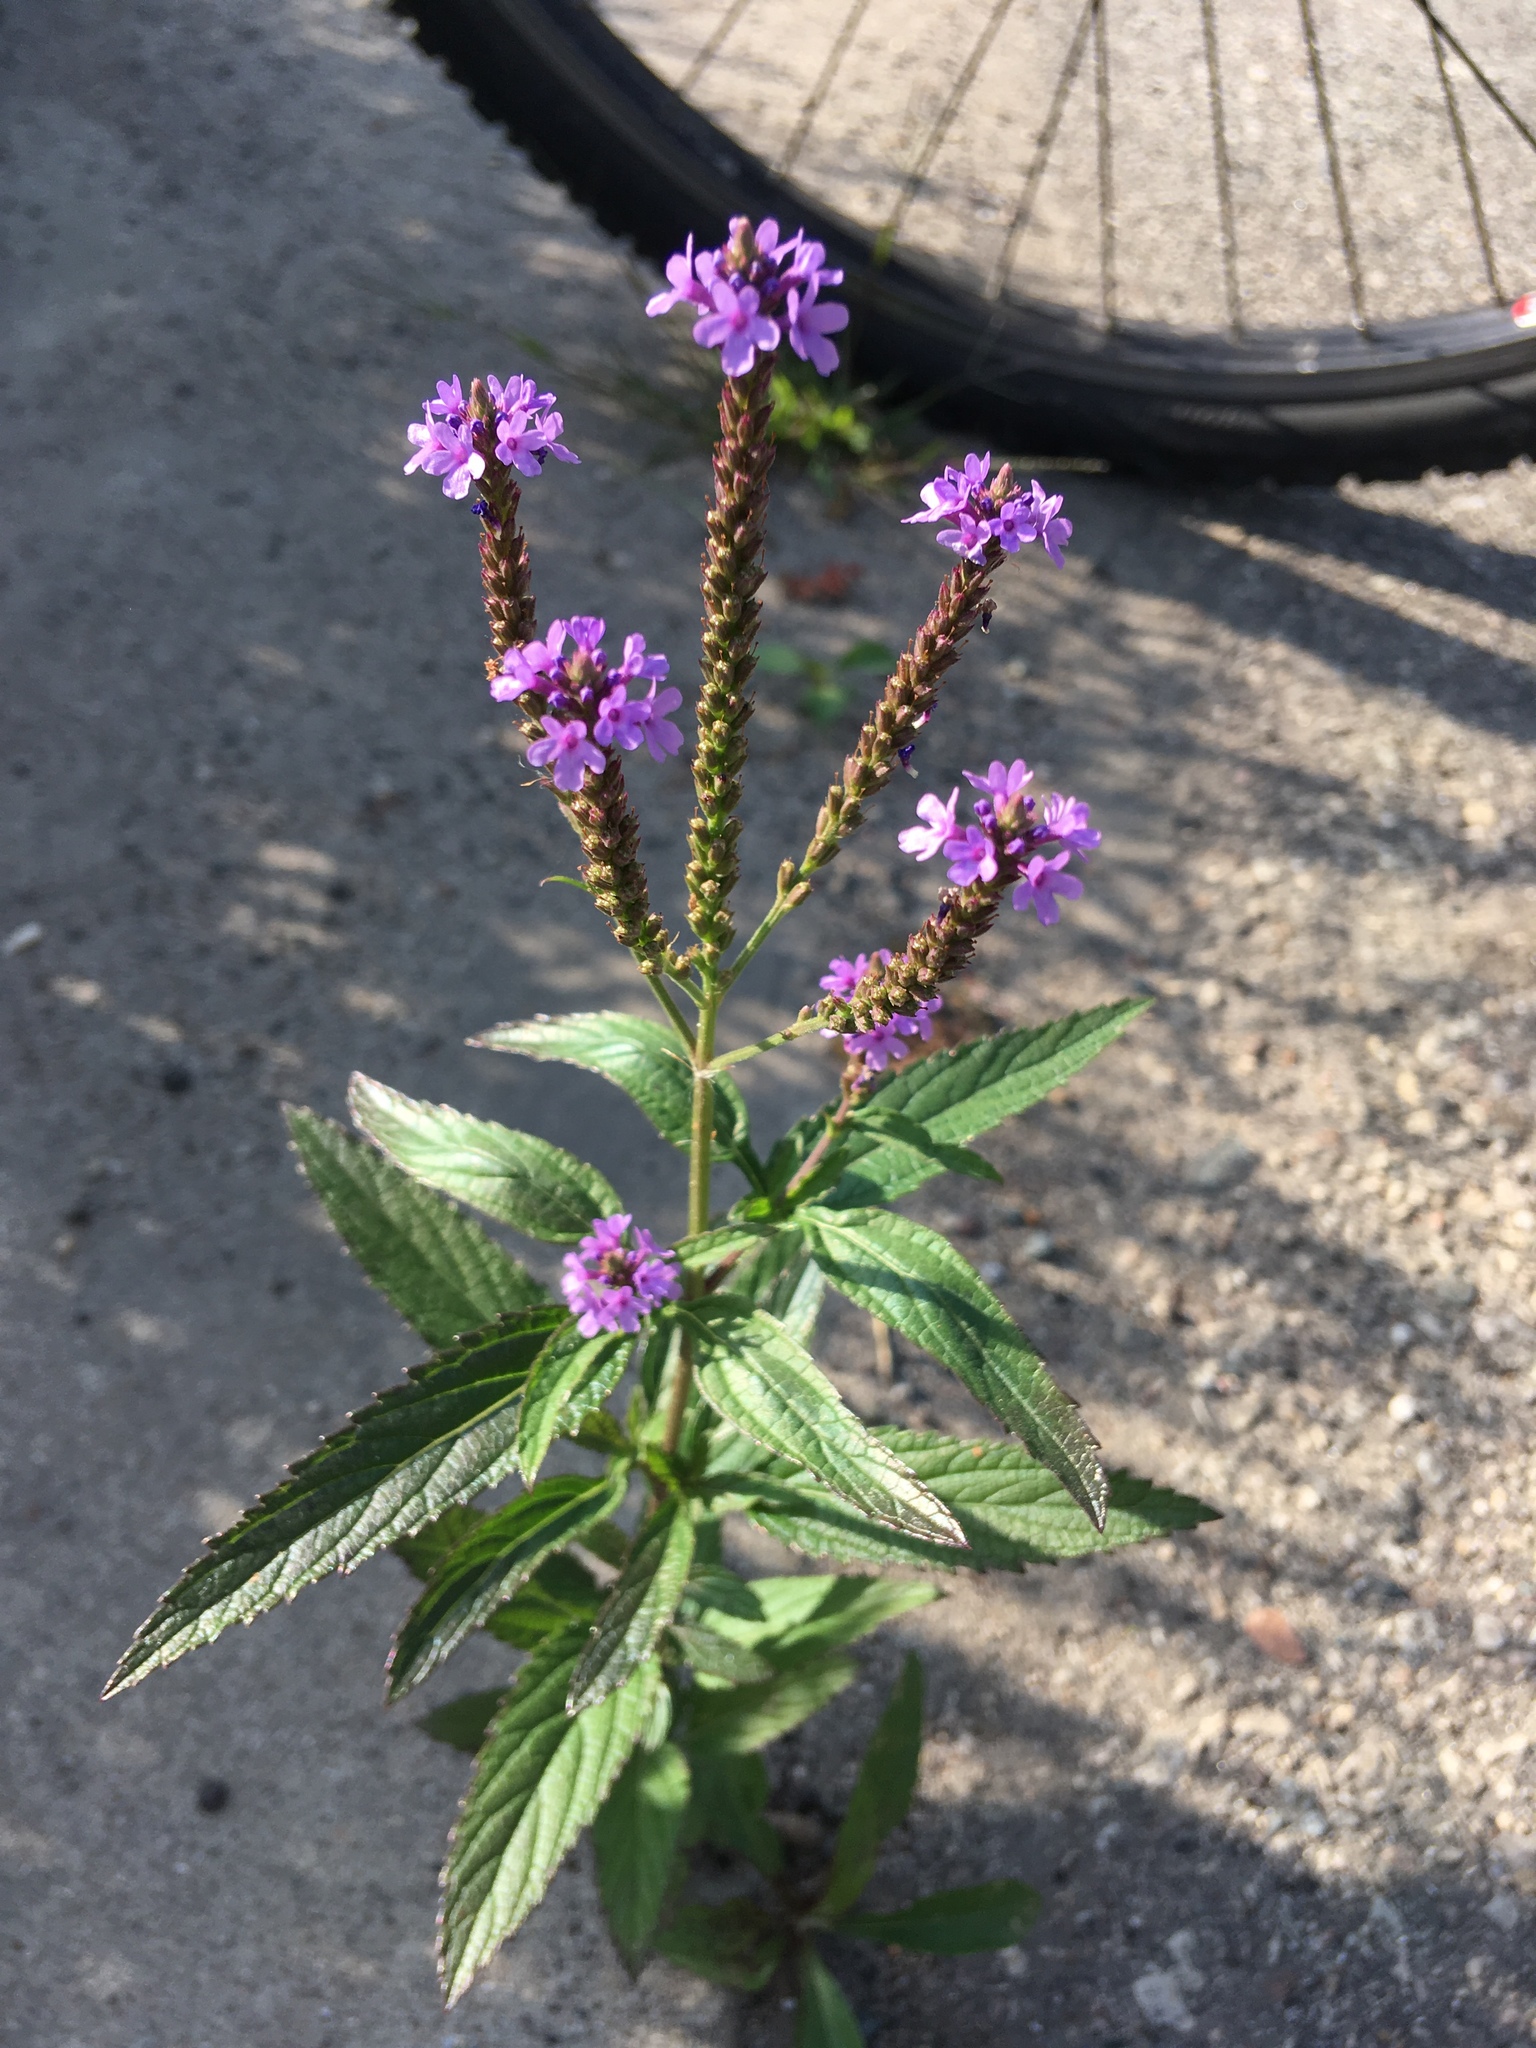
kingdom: Plantae
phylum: Tracheophyta
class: Magnoliopsida
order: Lamiales
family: Verbenaceae
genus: Verbena
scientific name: Verbena hastata
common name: American blue vervain
